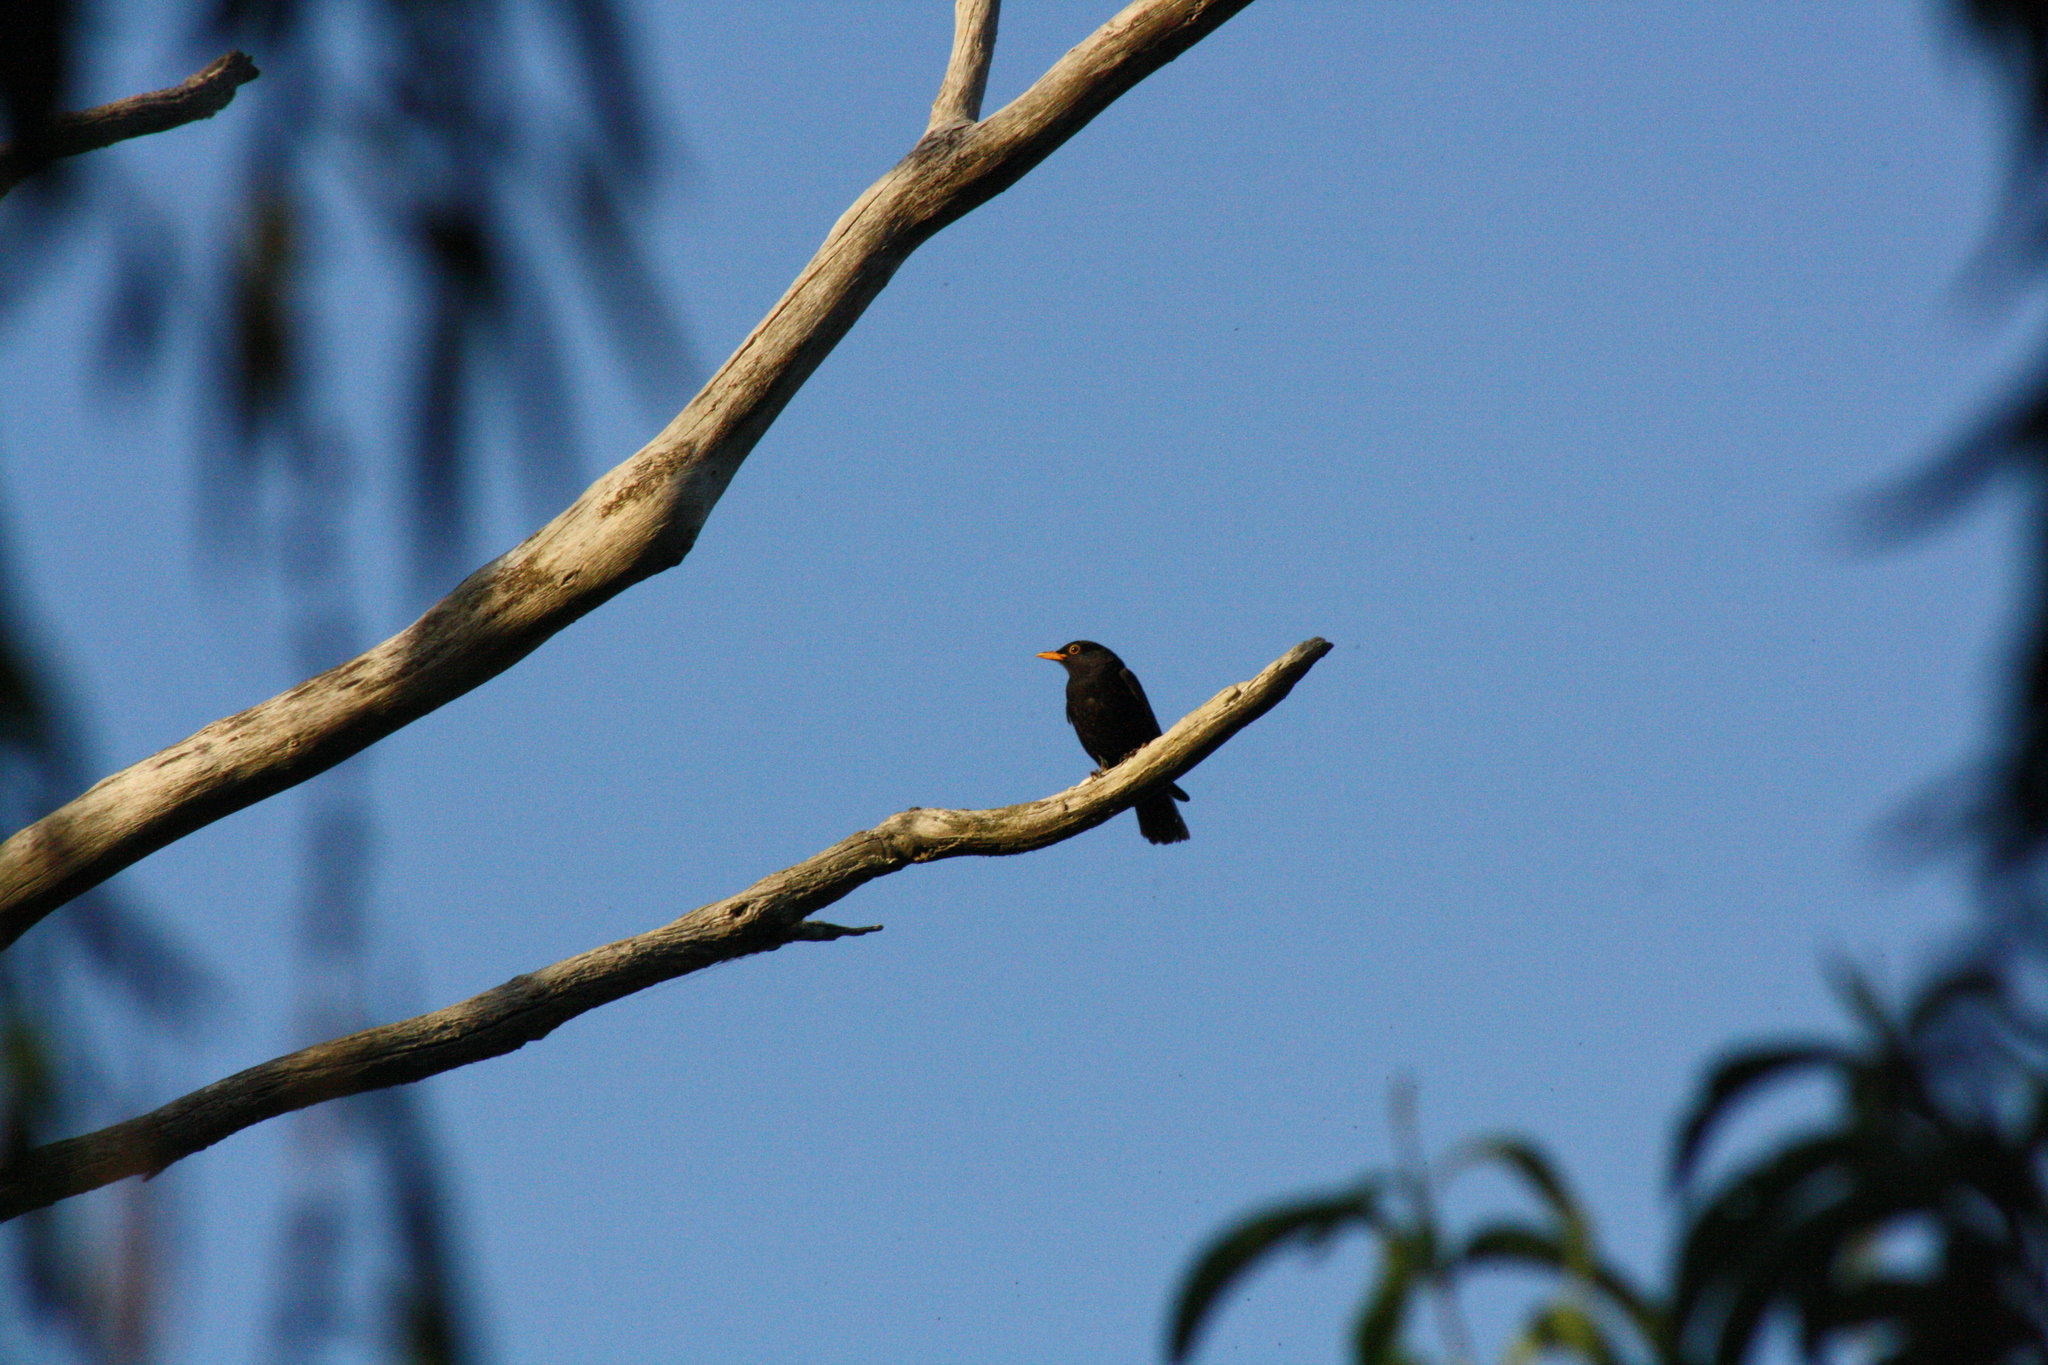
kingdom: Animalia
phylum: Chordata
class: Aves
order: Passeriformes
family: Turdidae
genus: Turdus
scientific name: Turdus merula
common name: Common blackbird
